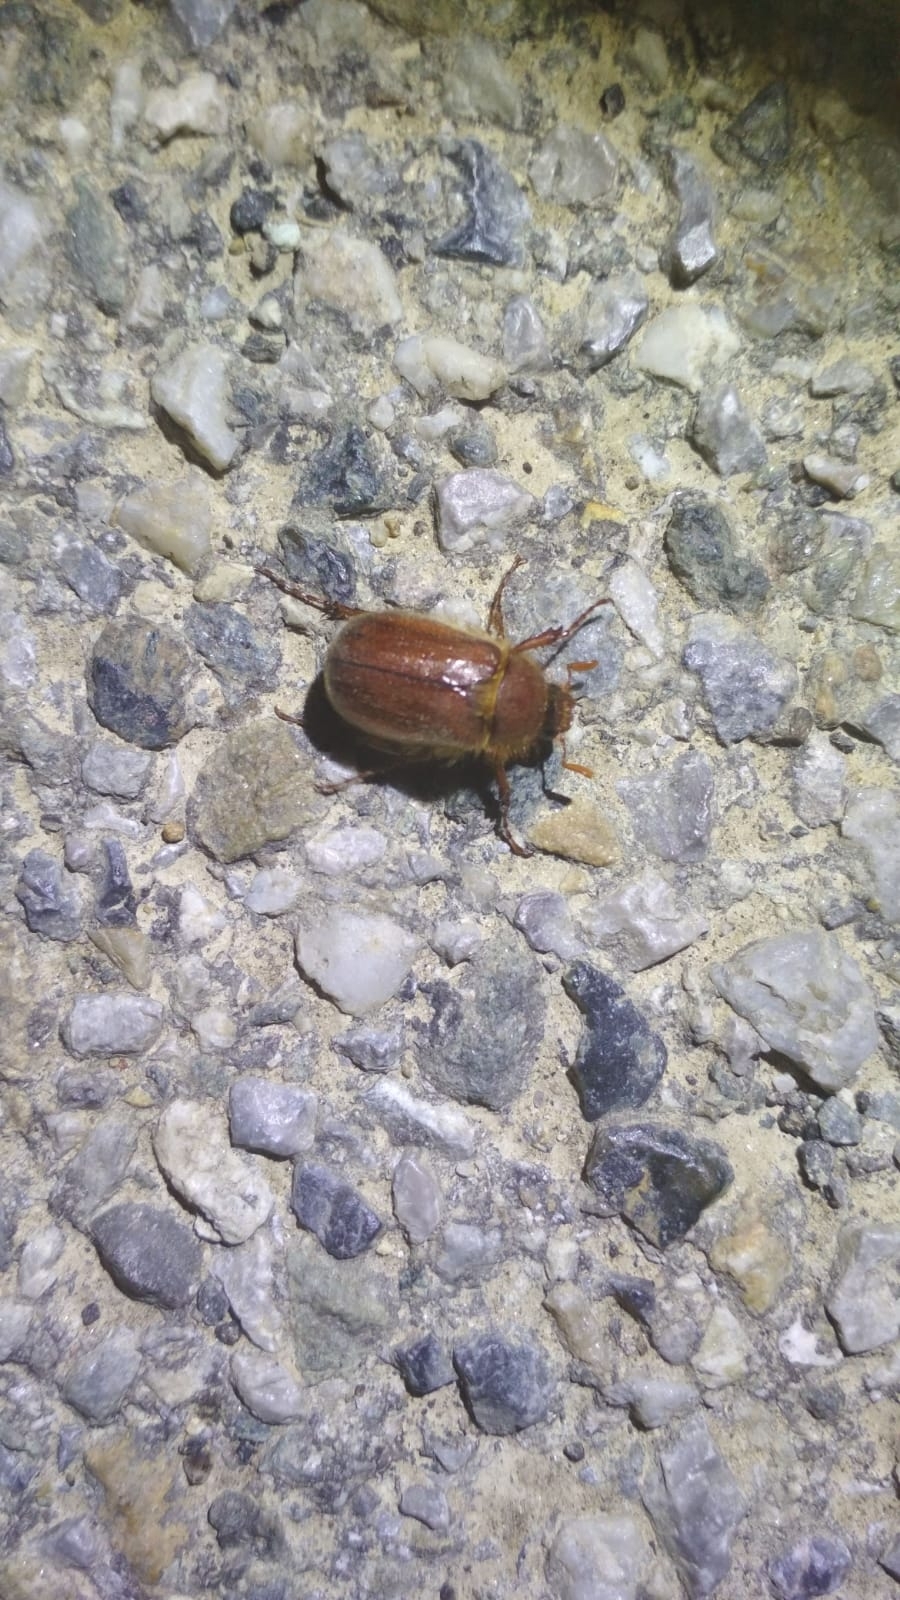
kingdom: Animalia
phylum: Arthropoda
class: Insecta
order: Coleoptera
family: Scarabaeidae
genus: Holochelus
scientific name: Holochelus fraxinicola
